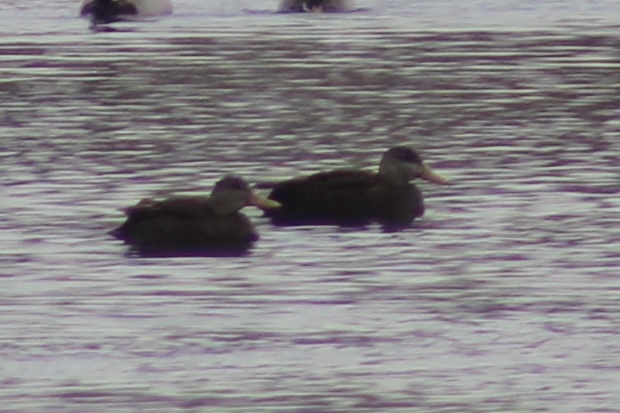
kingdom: Animalia
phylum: Chordata
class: Aves
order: Anseriformes
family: Anatidae
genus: Anas
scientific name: Anas rubripes
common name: American black duck
